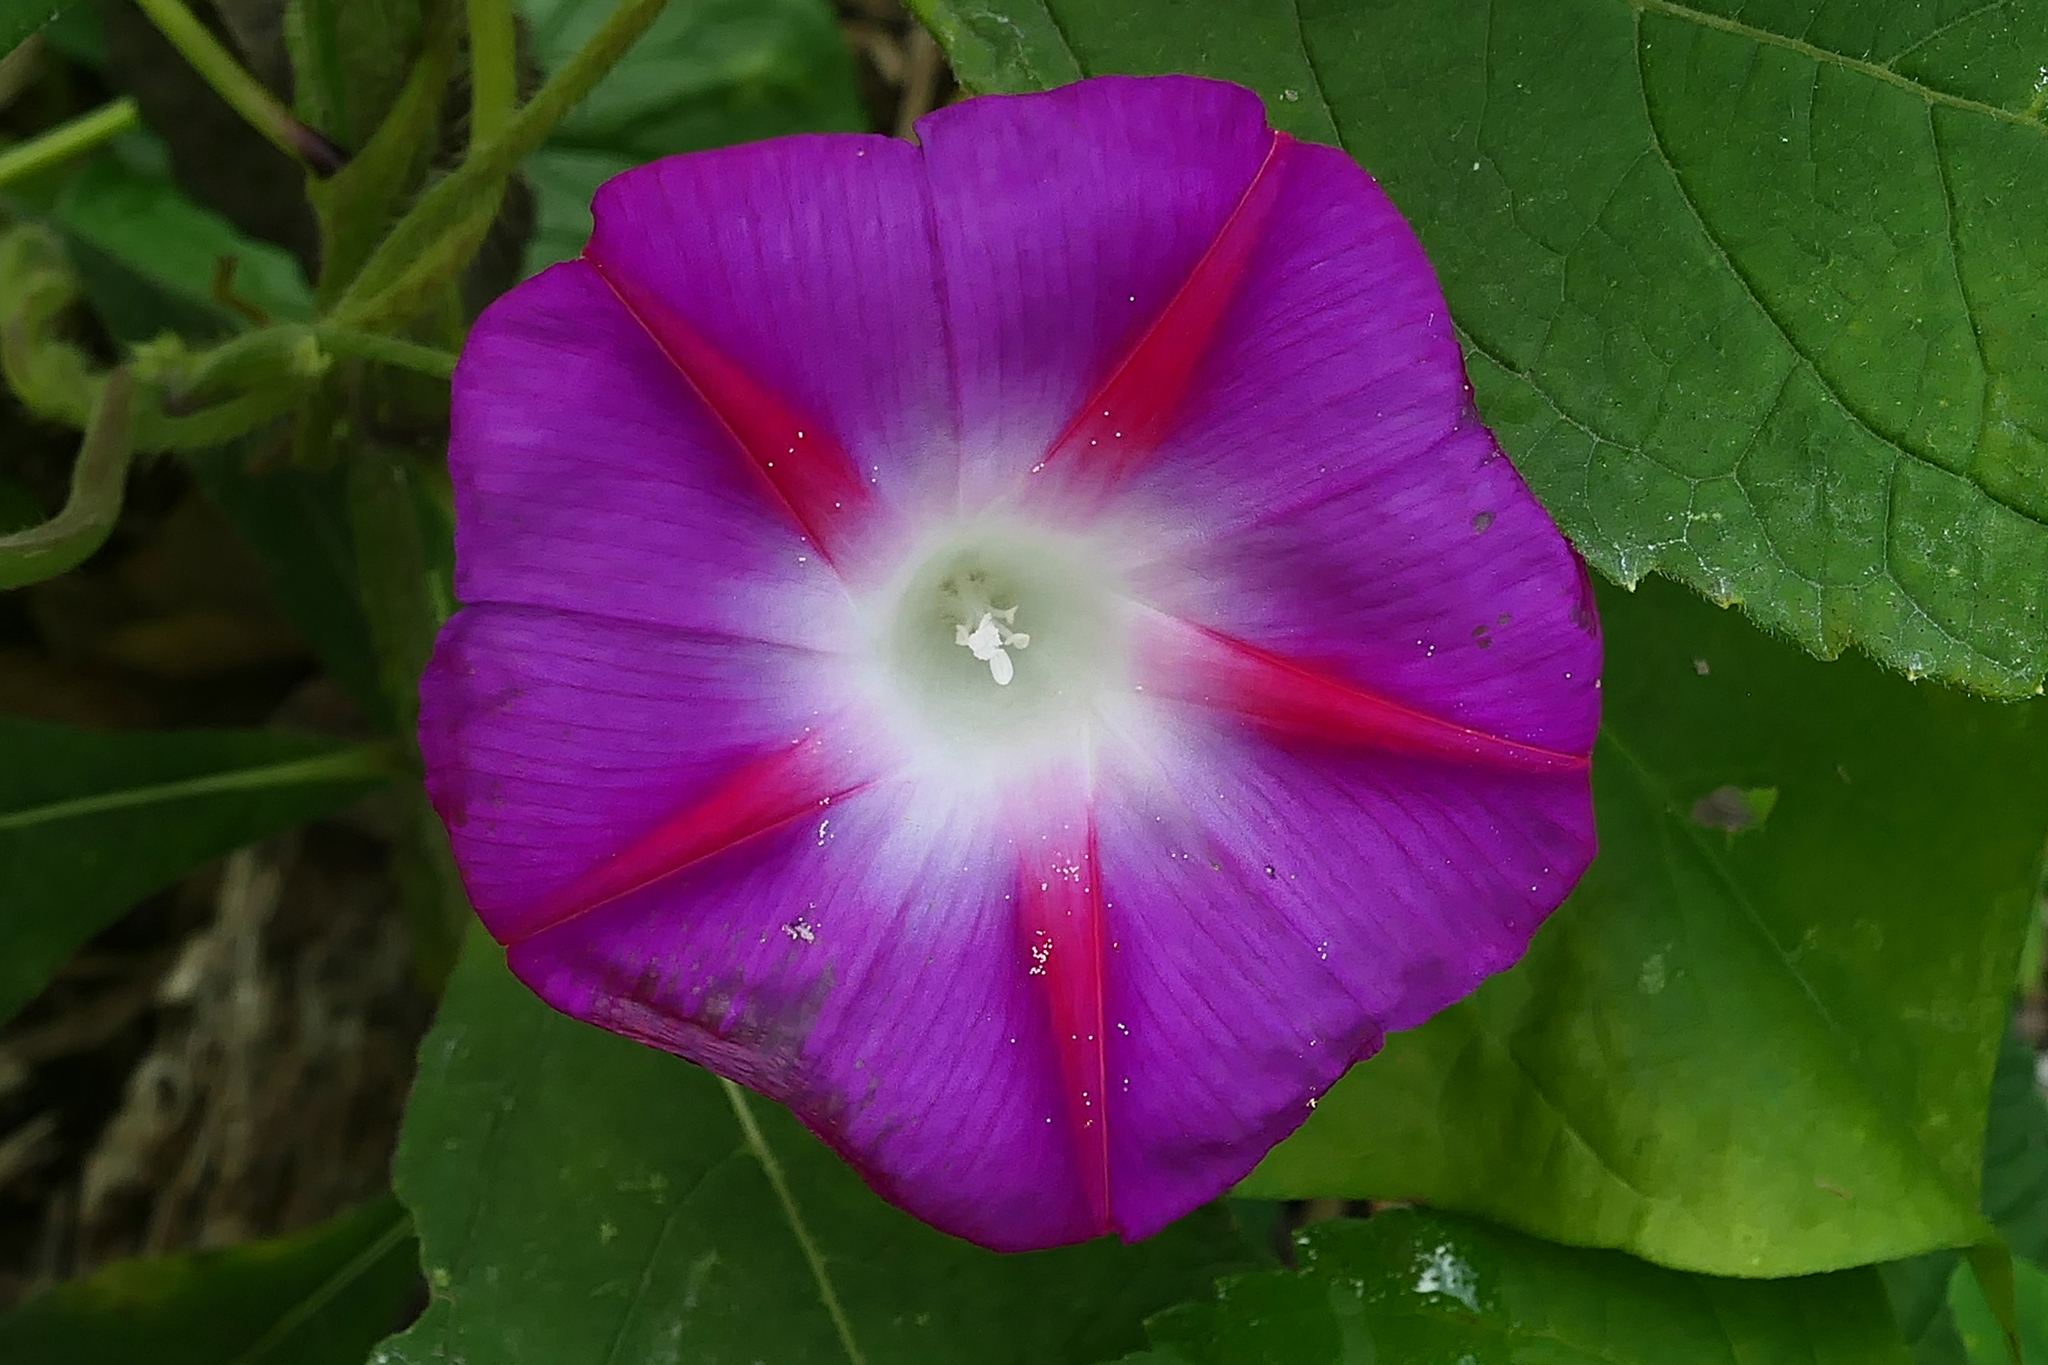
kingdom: Plantae
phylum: Tracheophyta
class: Magnoliopsida
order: Solanales
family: Convolvulaceae
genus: Ipomoea
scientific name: Ipomoea purpurea
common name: Common morning-glory
